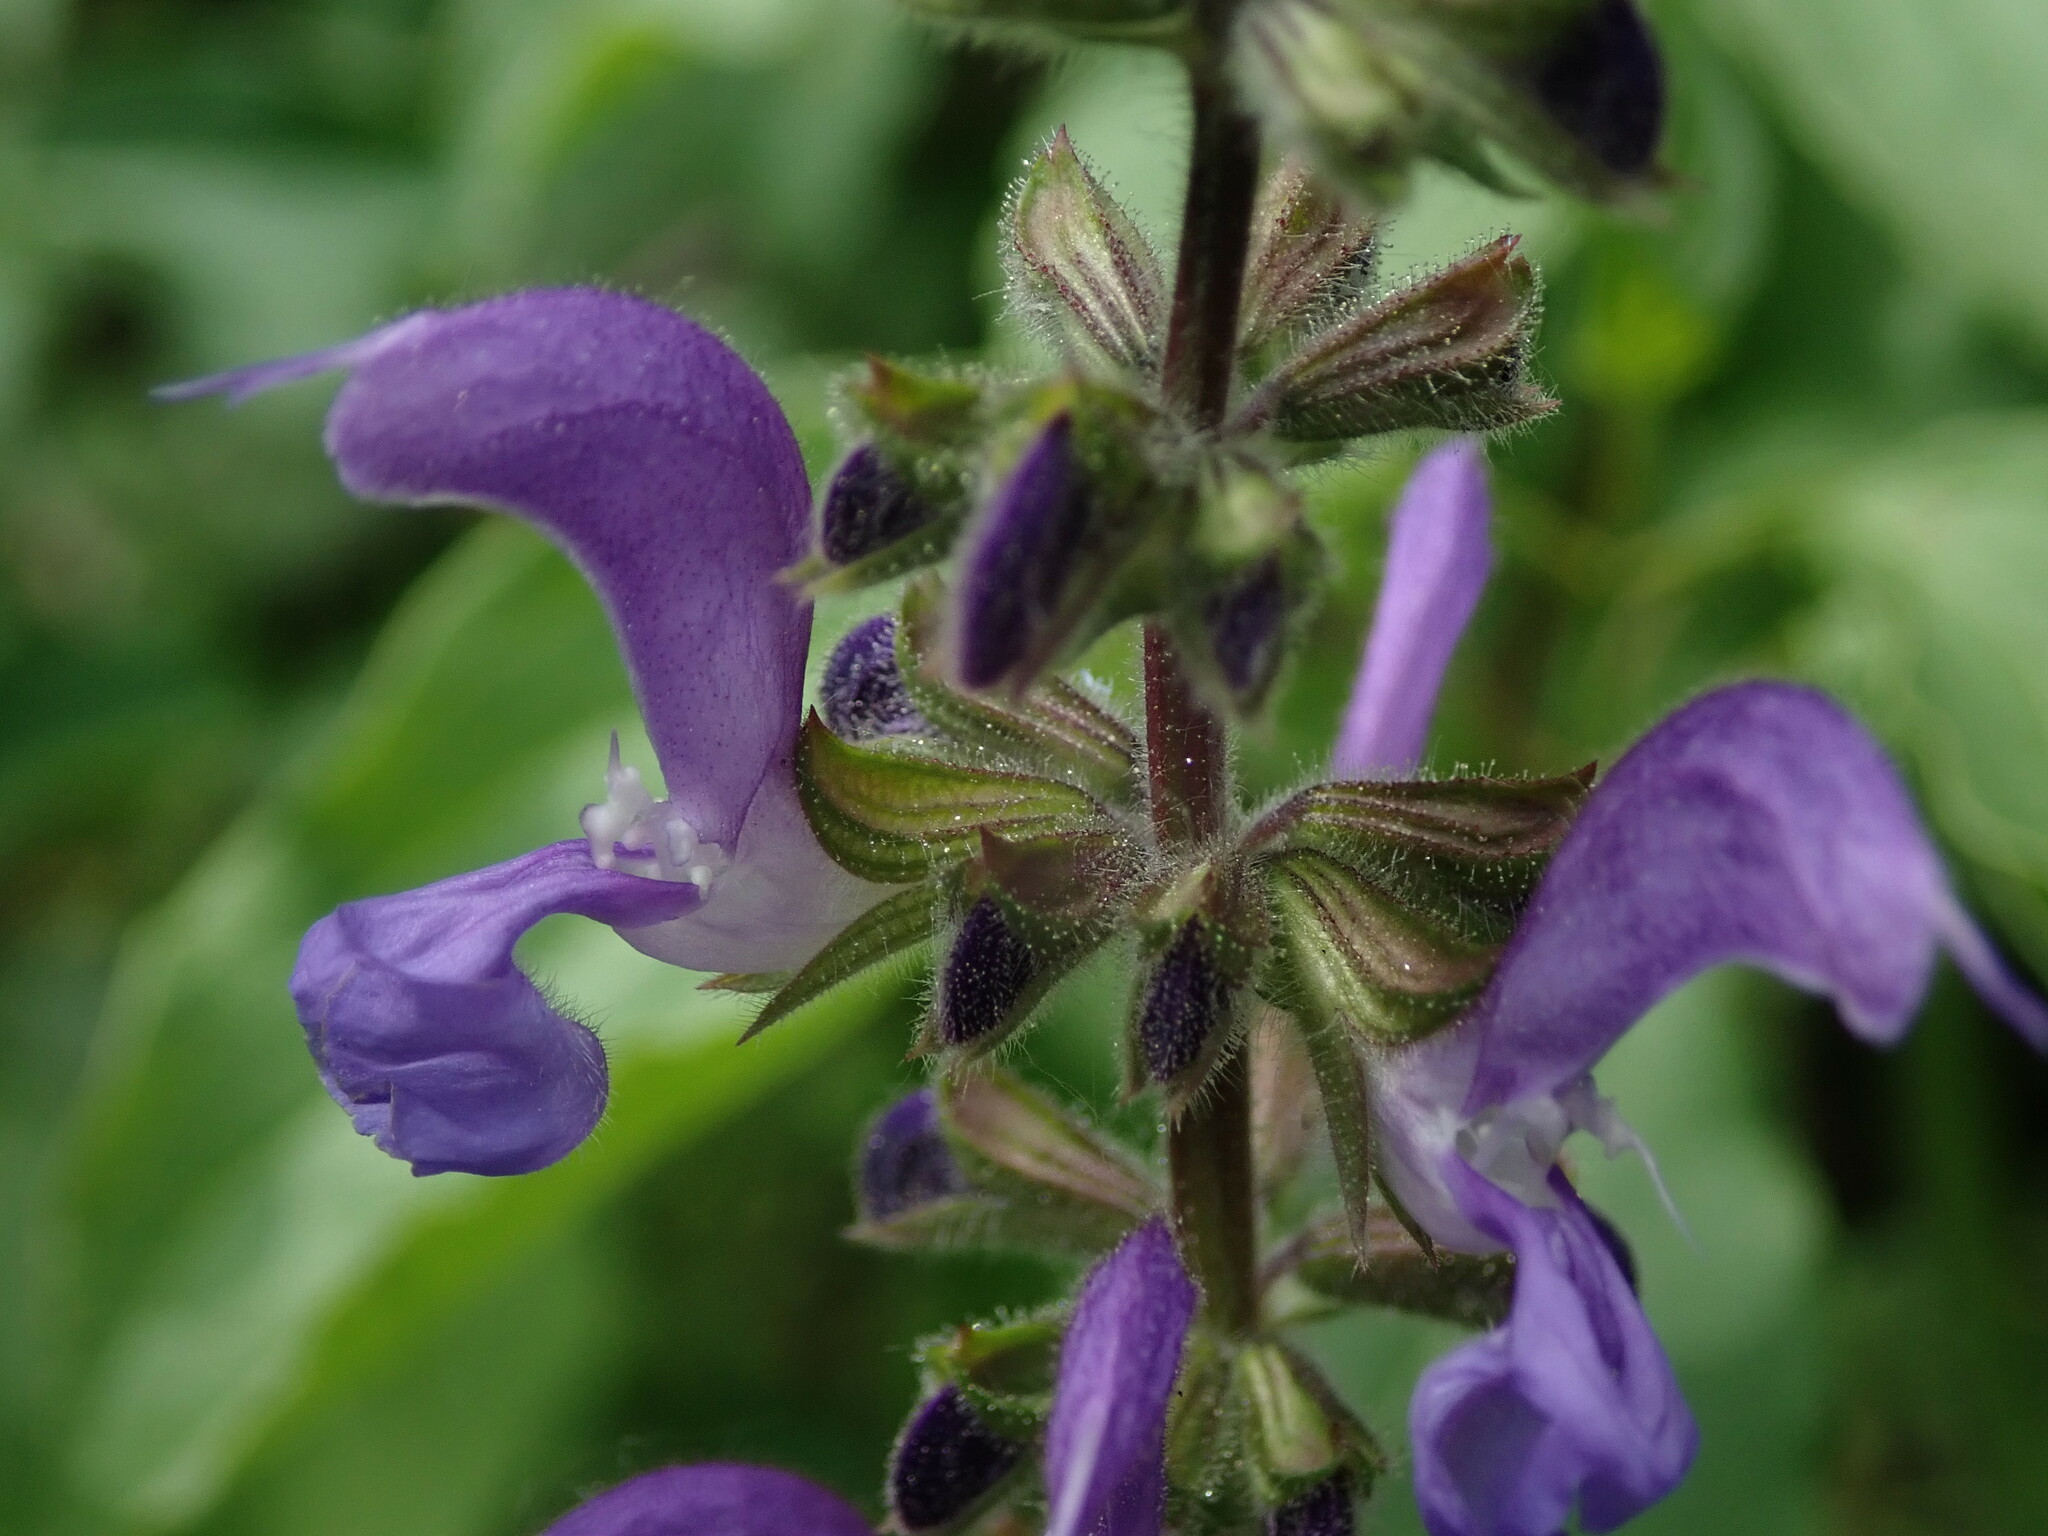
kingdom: Plantae
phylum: Tracheophyta
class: Magnoliopsida
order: Lamiales
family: Lamiaceae
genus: Salvia
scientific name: Salvia pratensis
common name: Meadow sage
